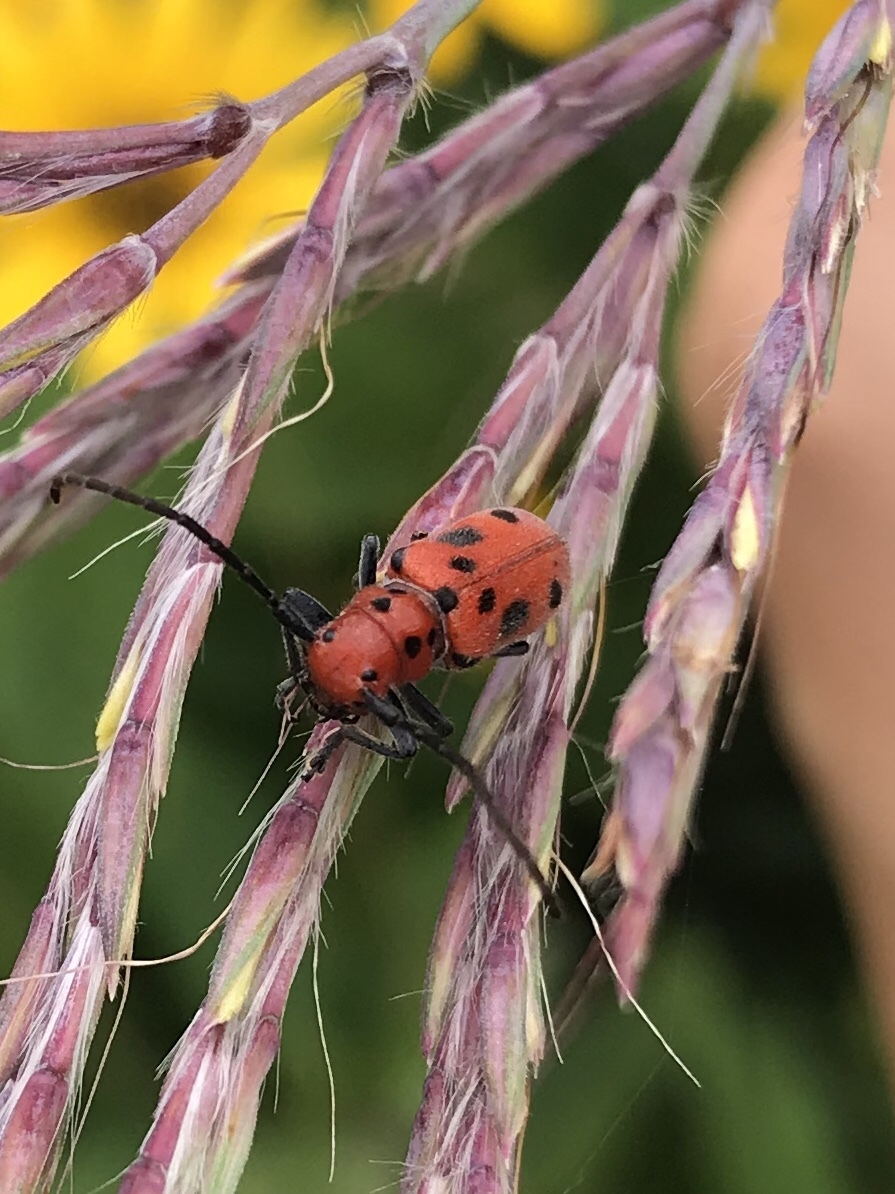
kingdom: Animalia
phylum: Arthropoda
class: Insecta
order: Coleoptera
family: Cerambycidae
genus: Tetraopes
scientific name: Tetraopes tetrophthalmus
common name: Red milkweed beetle
